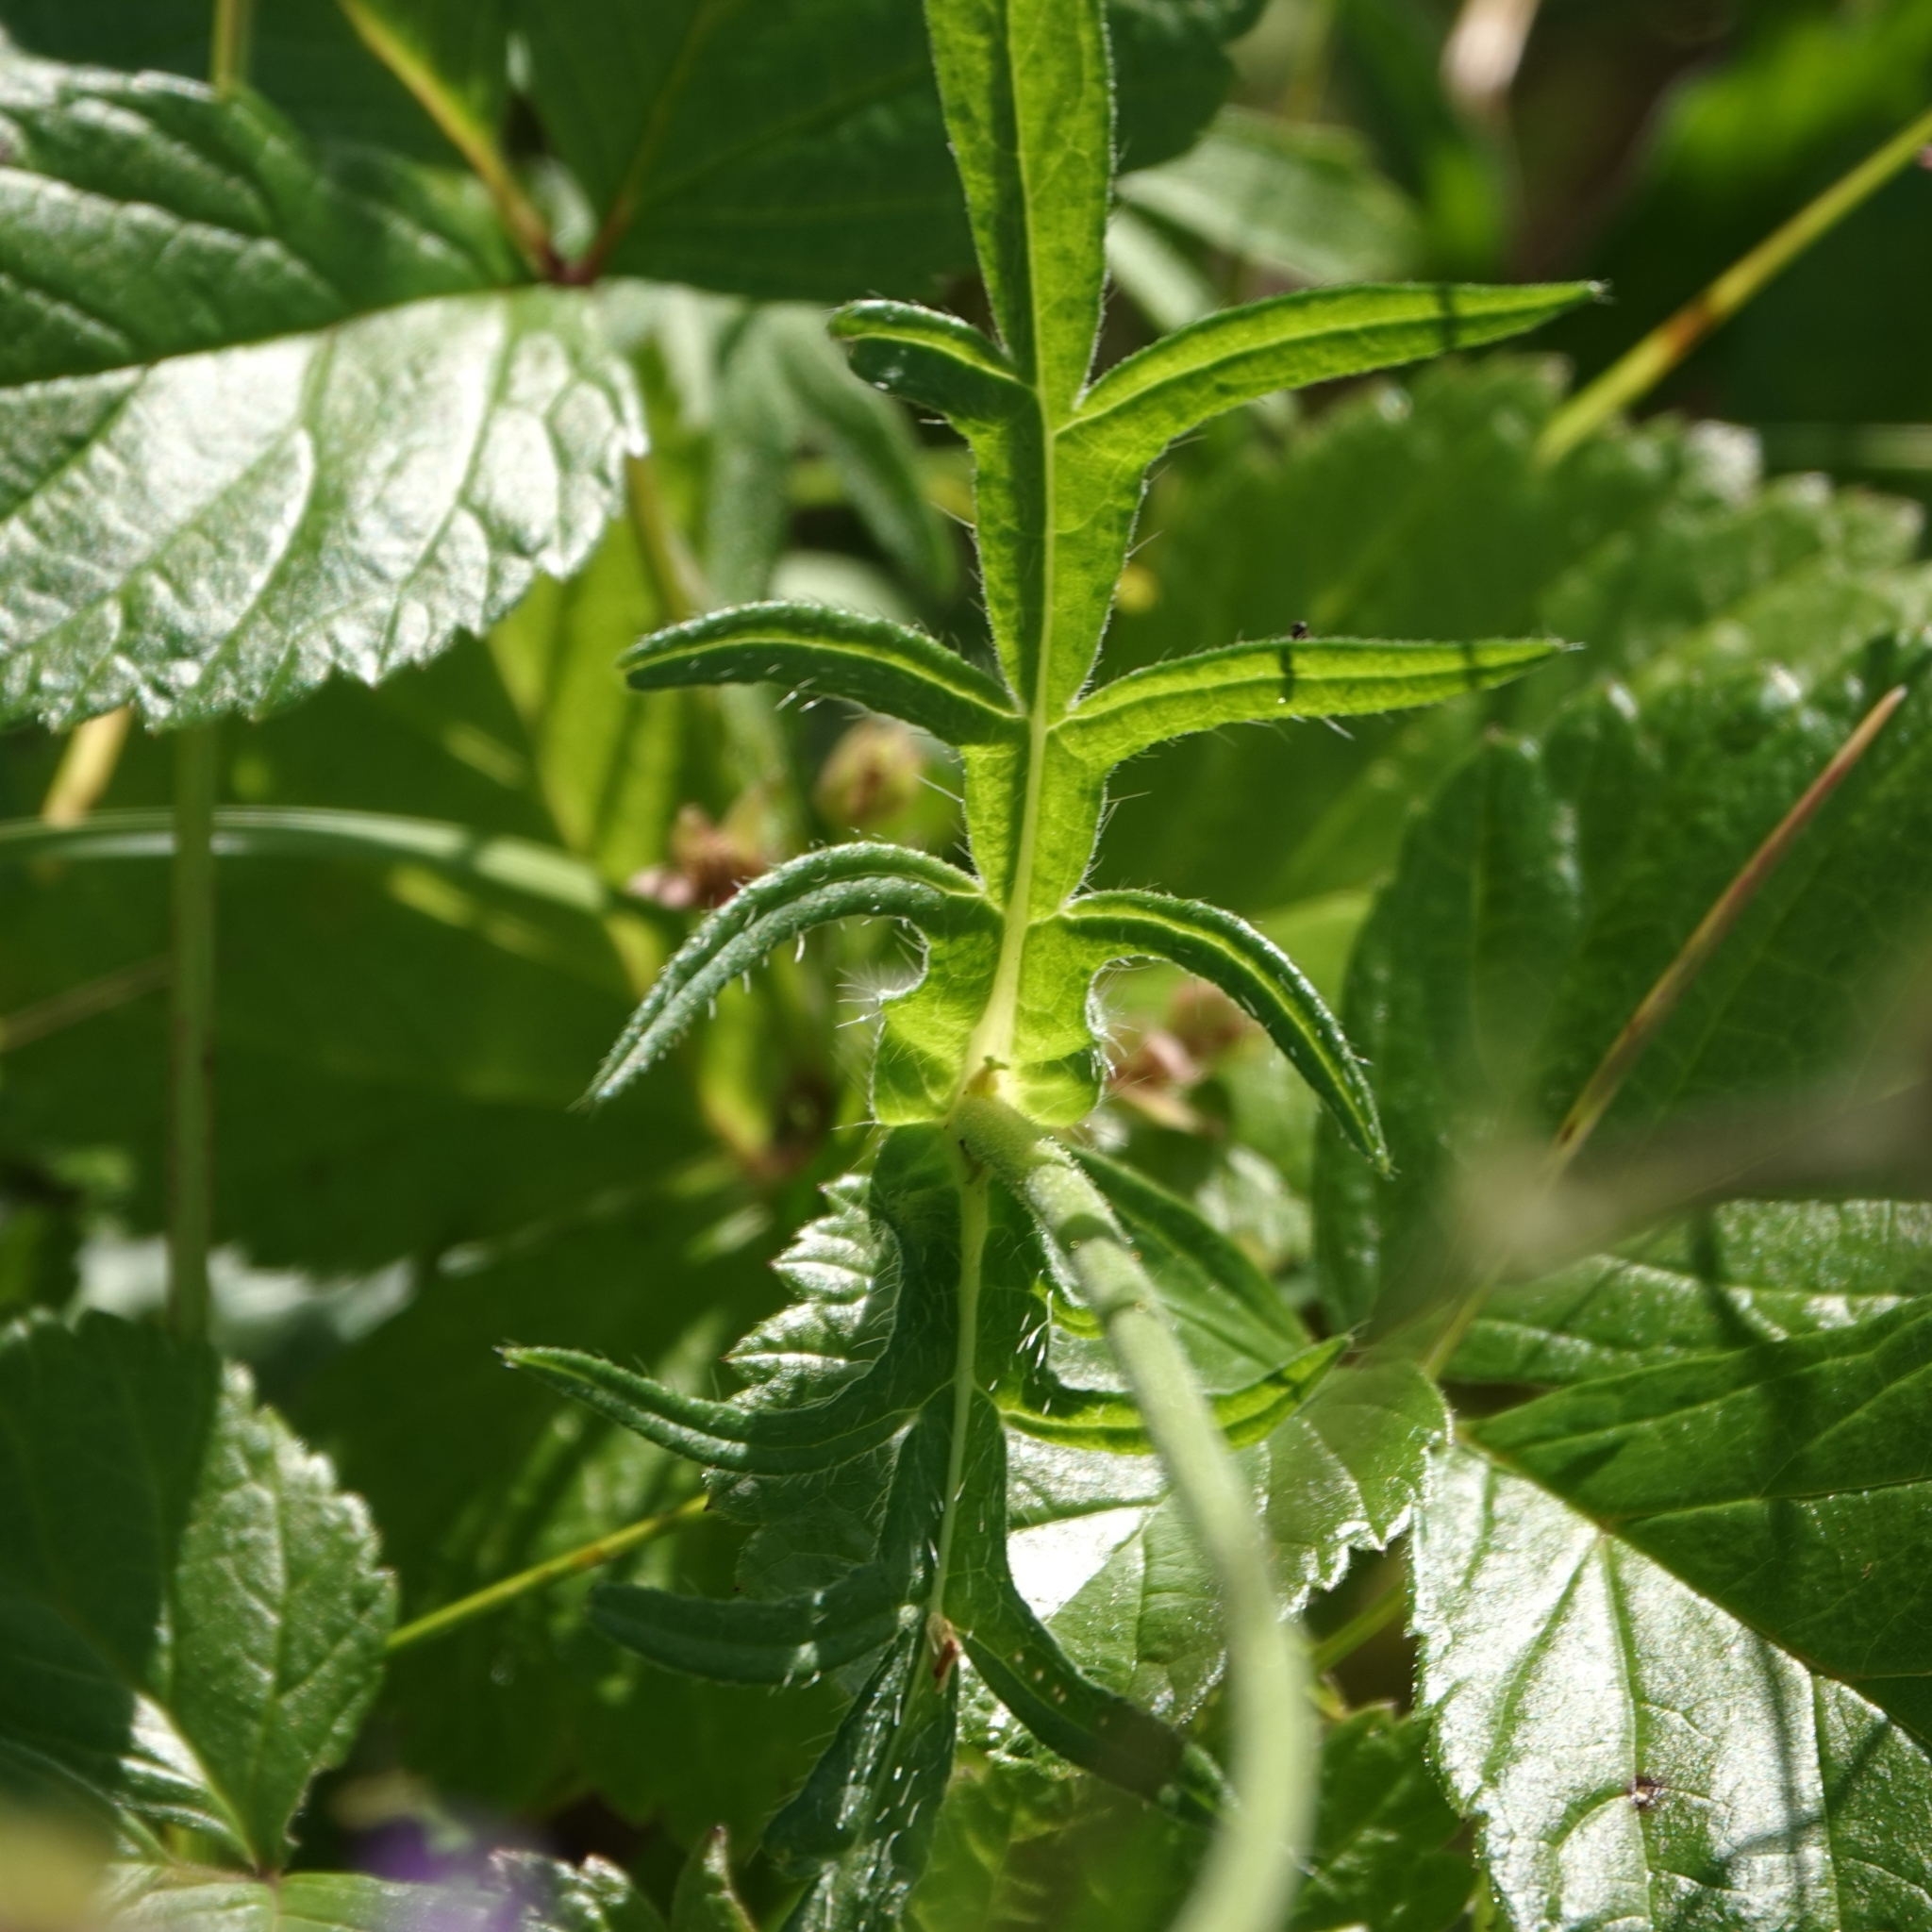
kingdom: Plantae
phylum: Tracheophyta
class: Magnoliopsida
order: Dipsacales
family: Caprifoliaceae
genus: Knautia
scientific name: Knautia arvensis
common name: Field scabiosa
